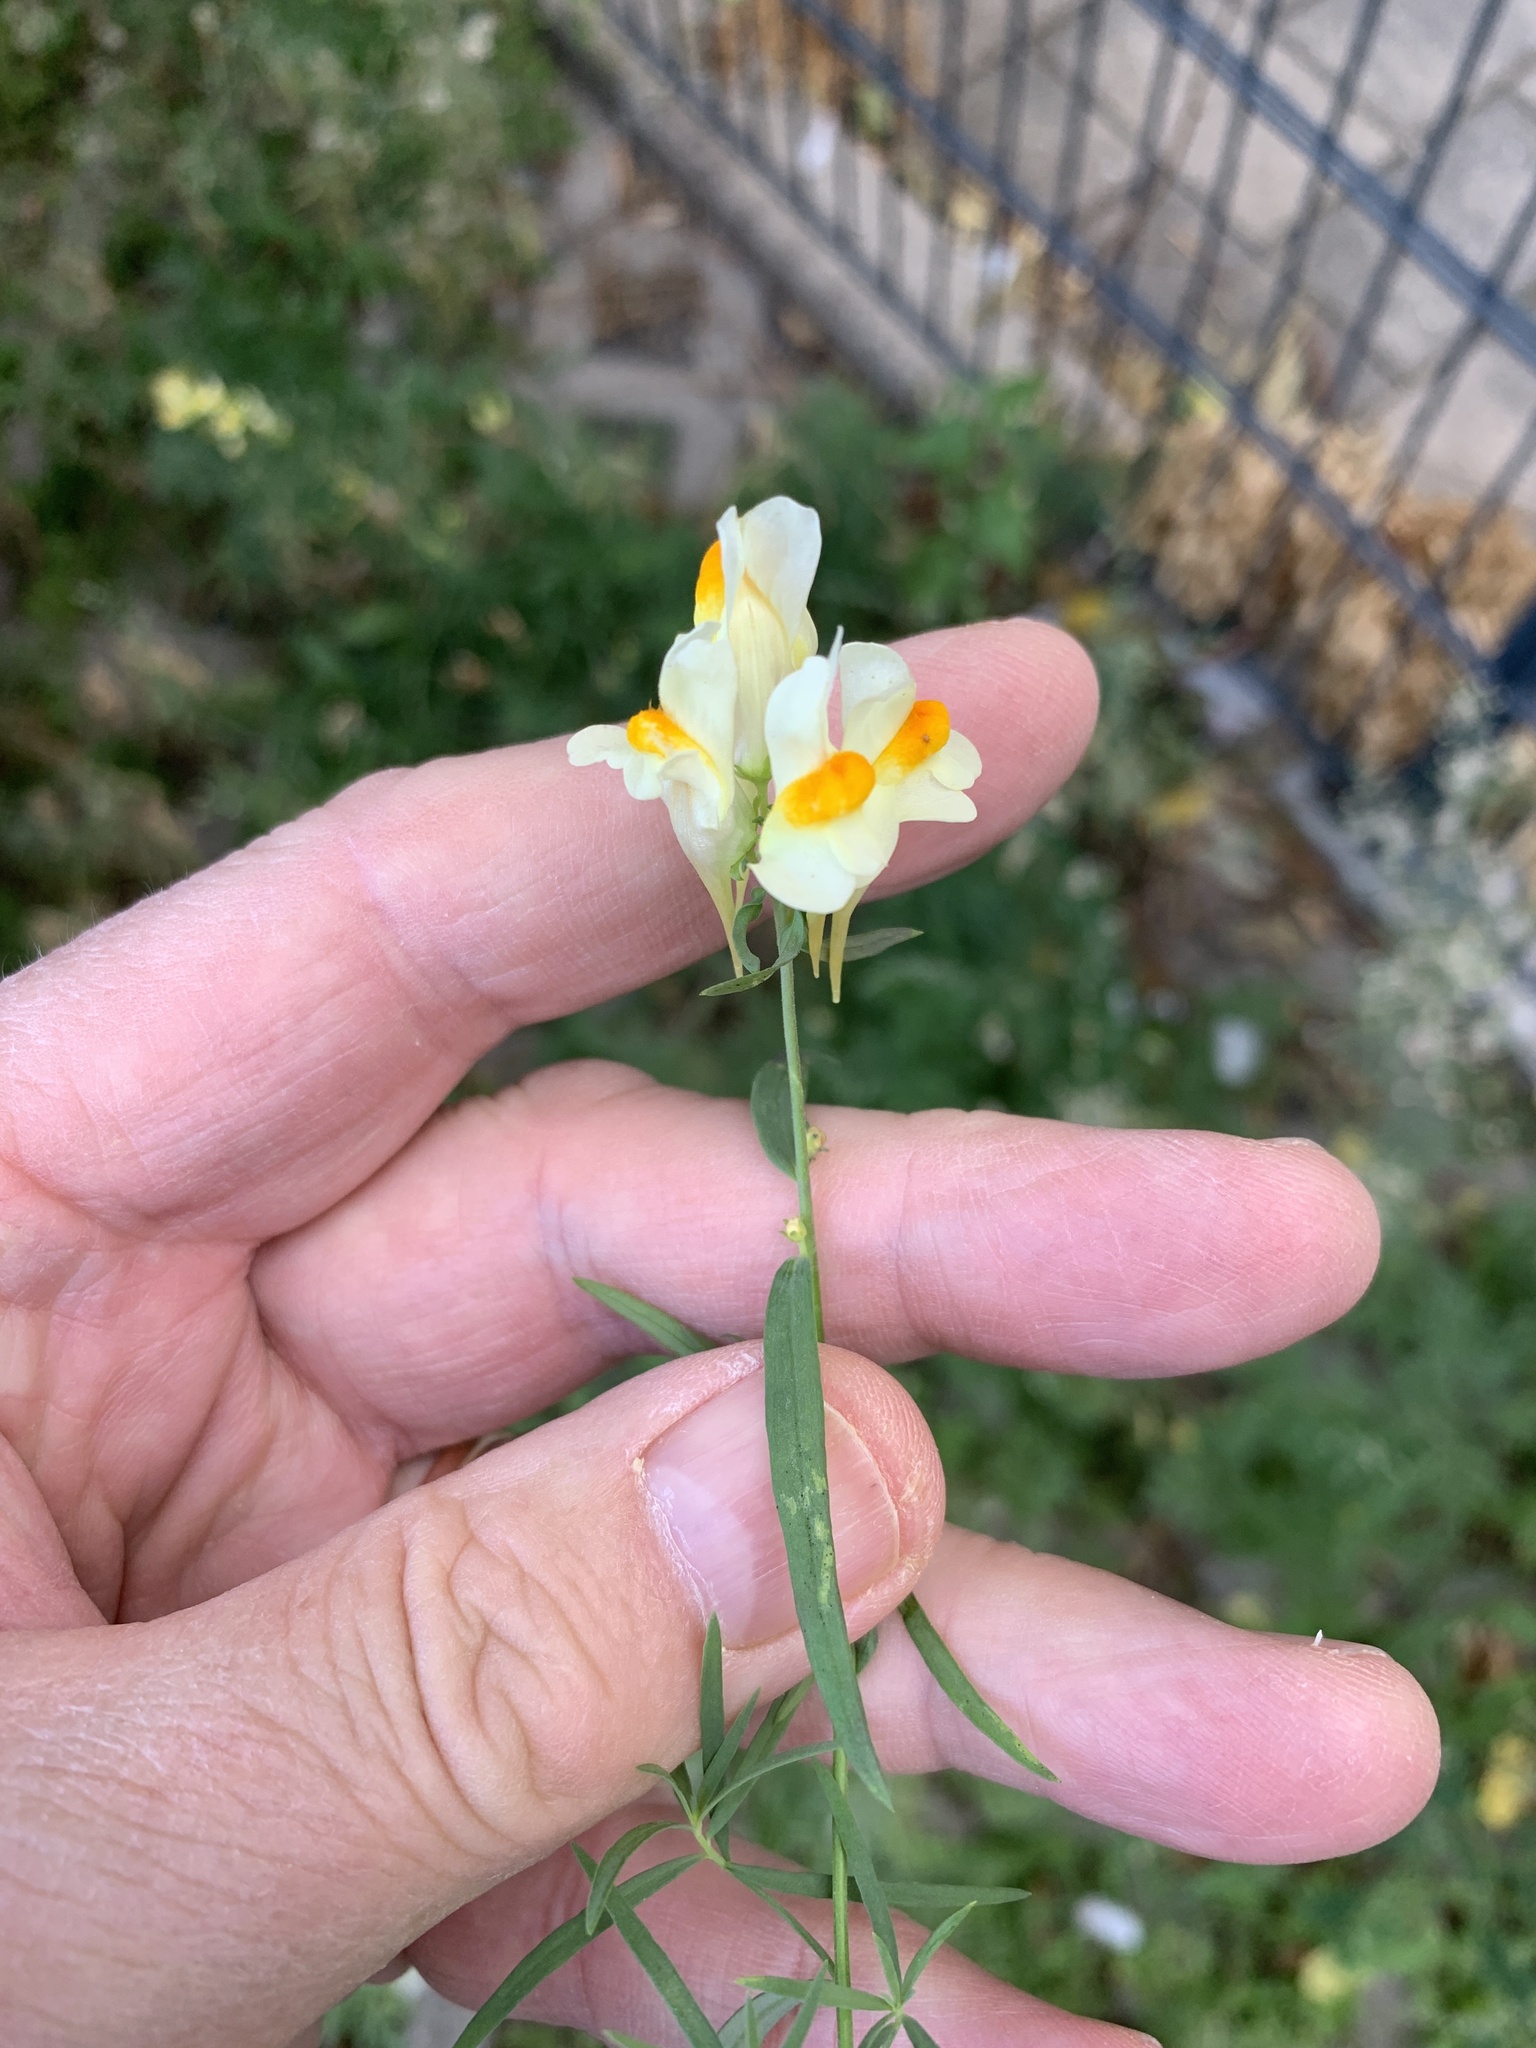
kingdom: Plantae
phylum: Tracheophyta
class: Magnoliopsida
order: Lamiales
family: Plantaginaceae
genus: Linaria
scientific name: Linaria vulgaris
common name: Butter and eggs
